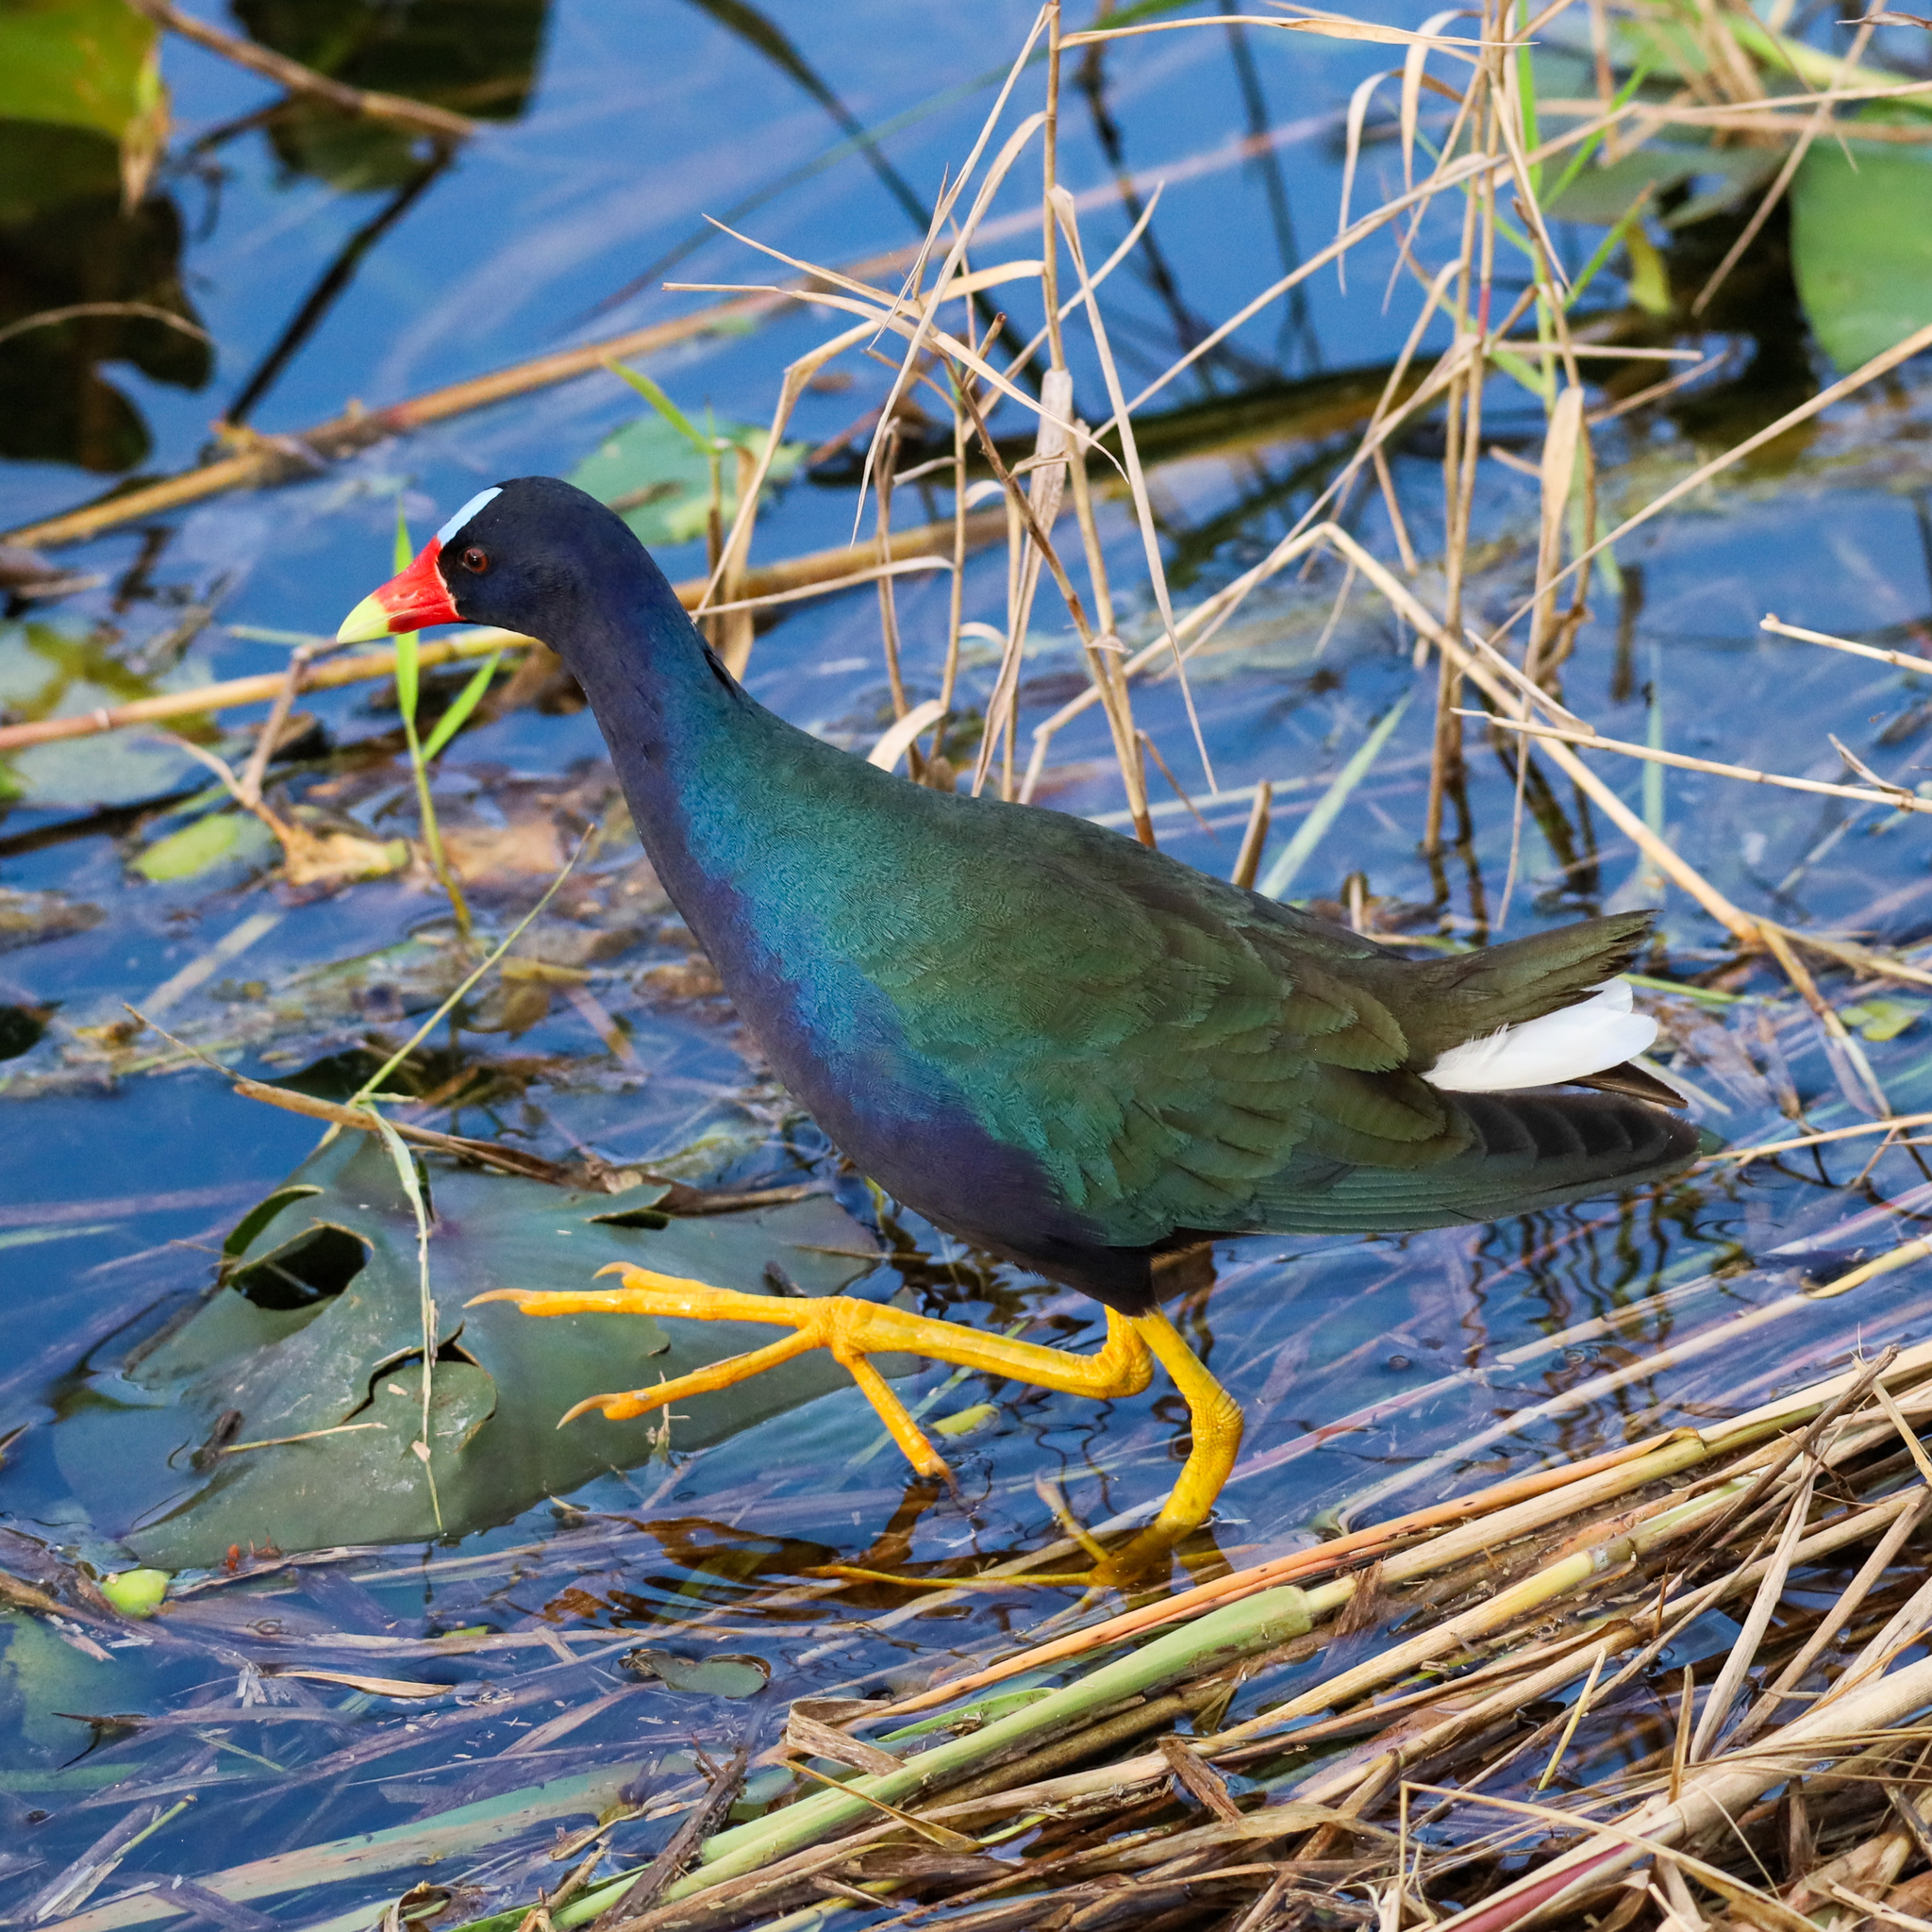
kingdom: Animalia
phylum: Chordata
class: Aves
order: Gruiformes
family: Rallidae
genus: Porphyrio
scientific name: Porphyrio martinica
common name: Purple gallinule
